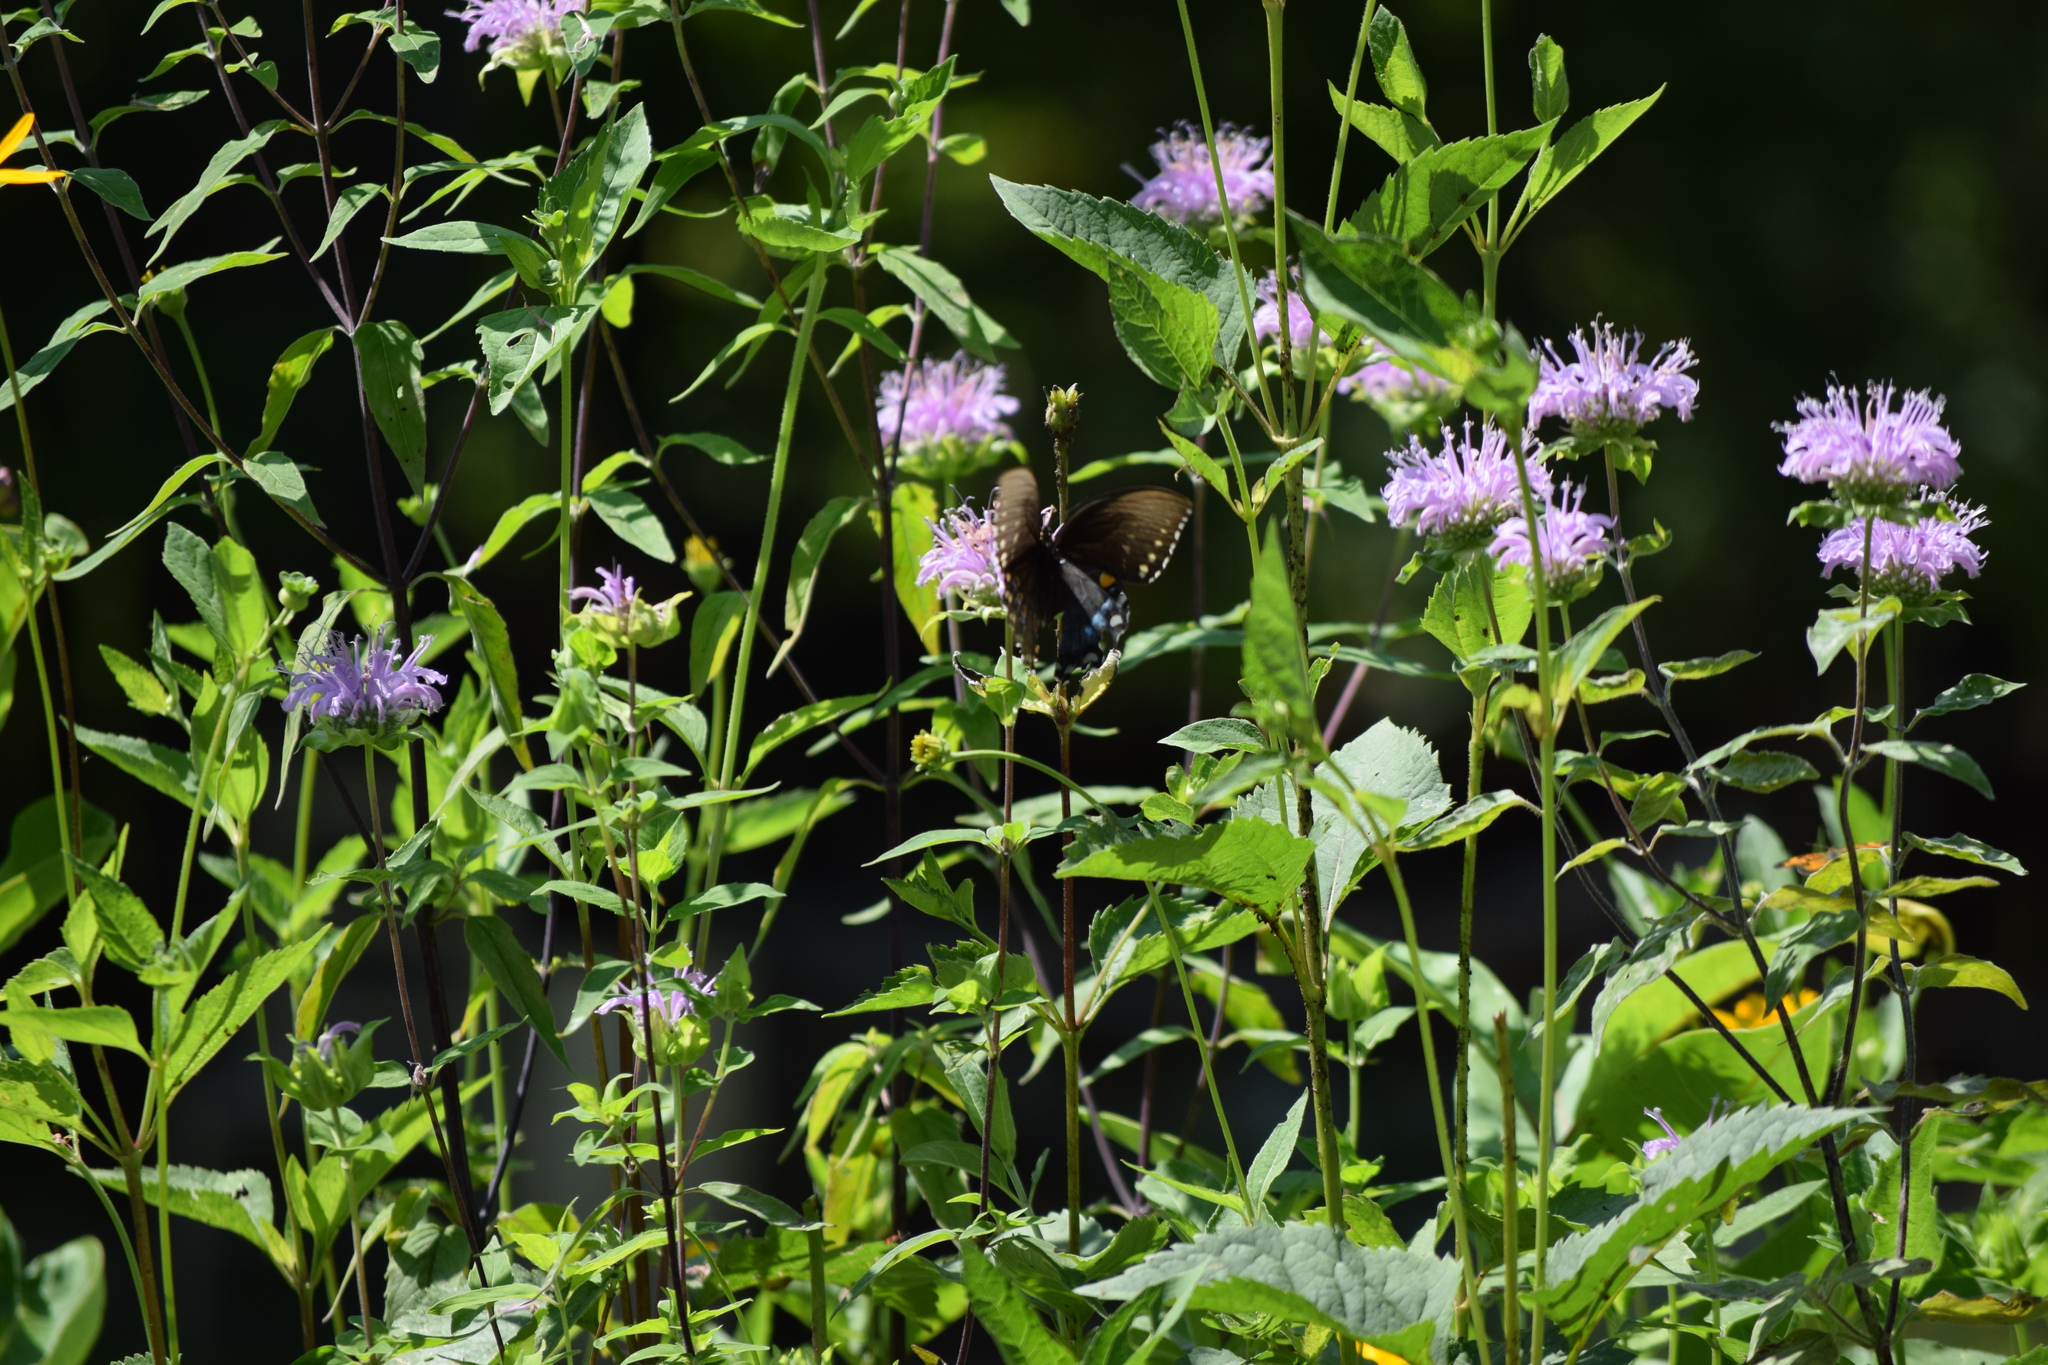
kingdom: Animalia
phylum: Arthropoda
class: Insecta
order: Lepidoptera
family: Papilionidae
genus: Papilio
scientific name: Papilio troilus
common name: Spicebush swallowtail
